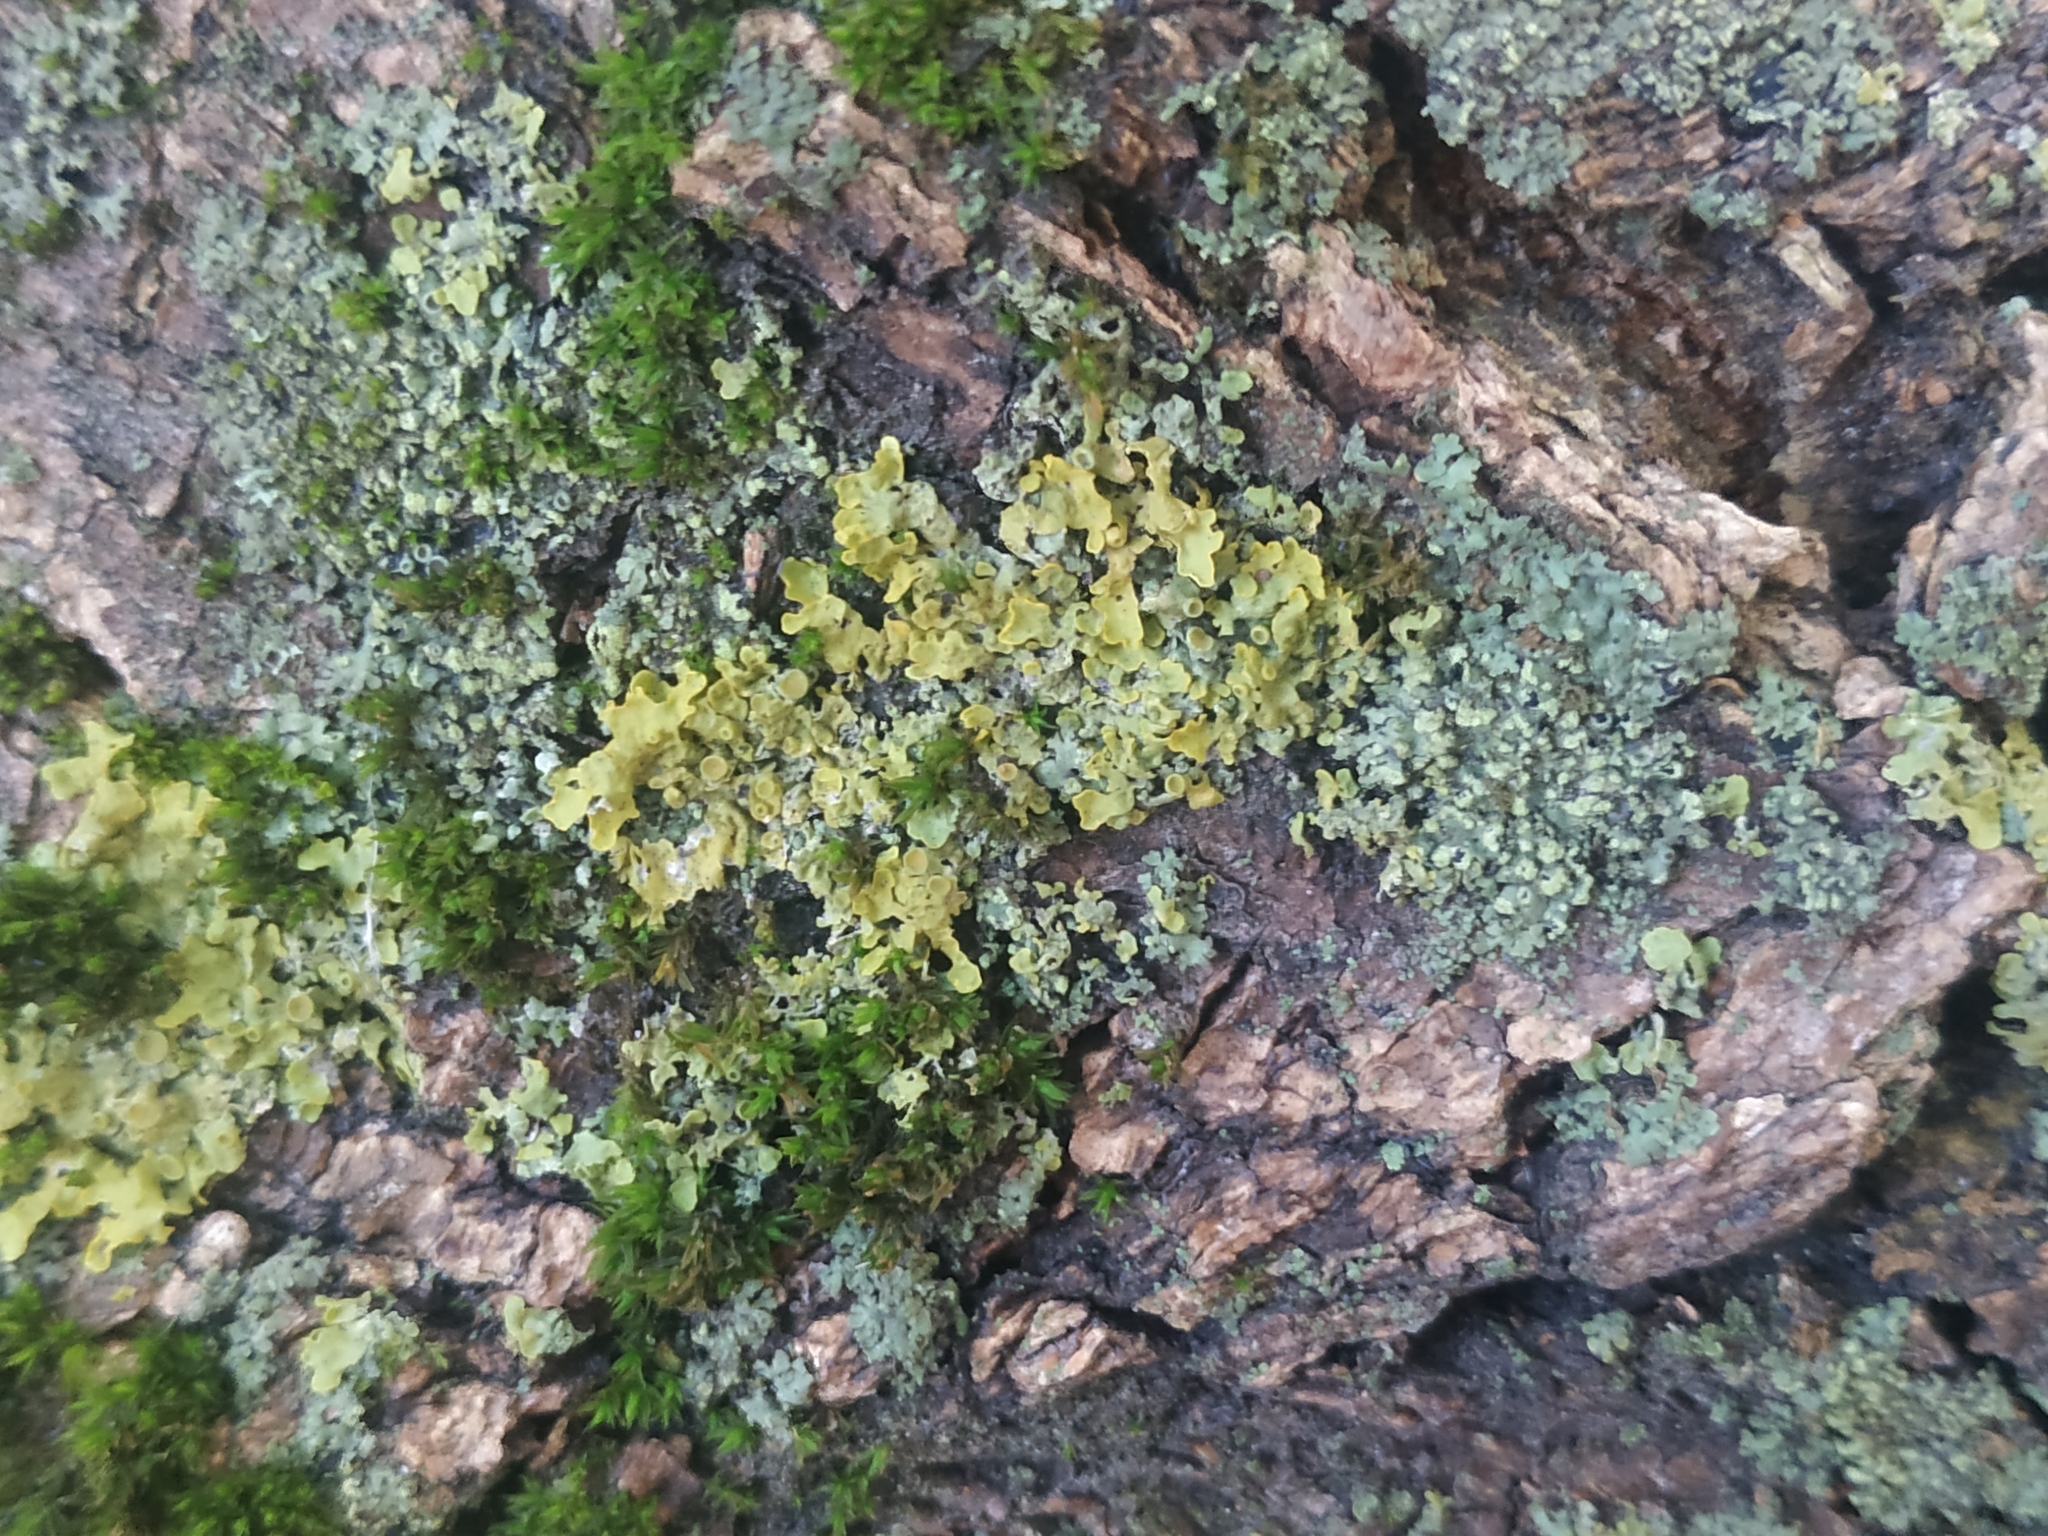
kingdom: Fungi
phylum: Ascomycota
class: Lecanoromycetes
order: Teloschistales
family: Teloschistaceae
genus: Xanthoria
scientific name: Xanthoria parietina
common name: Common orange lichen
